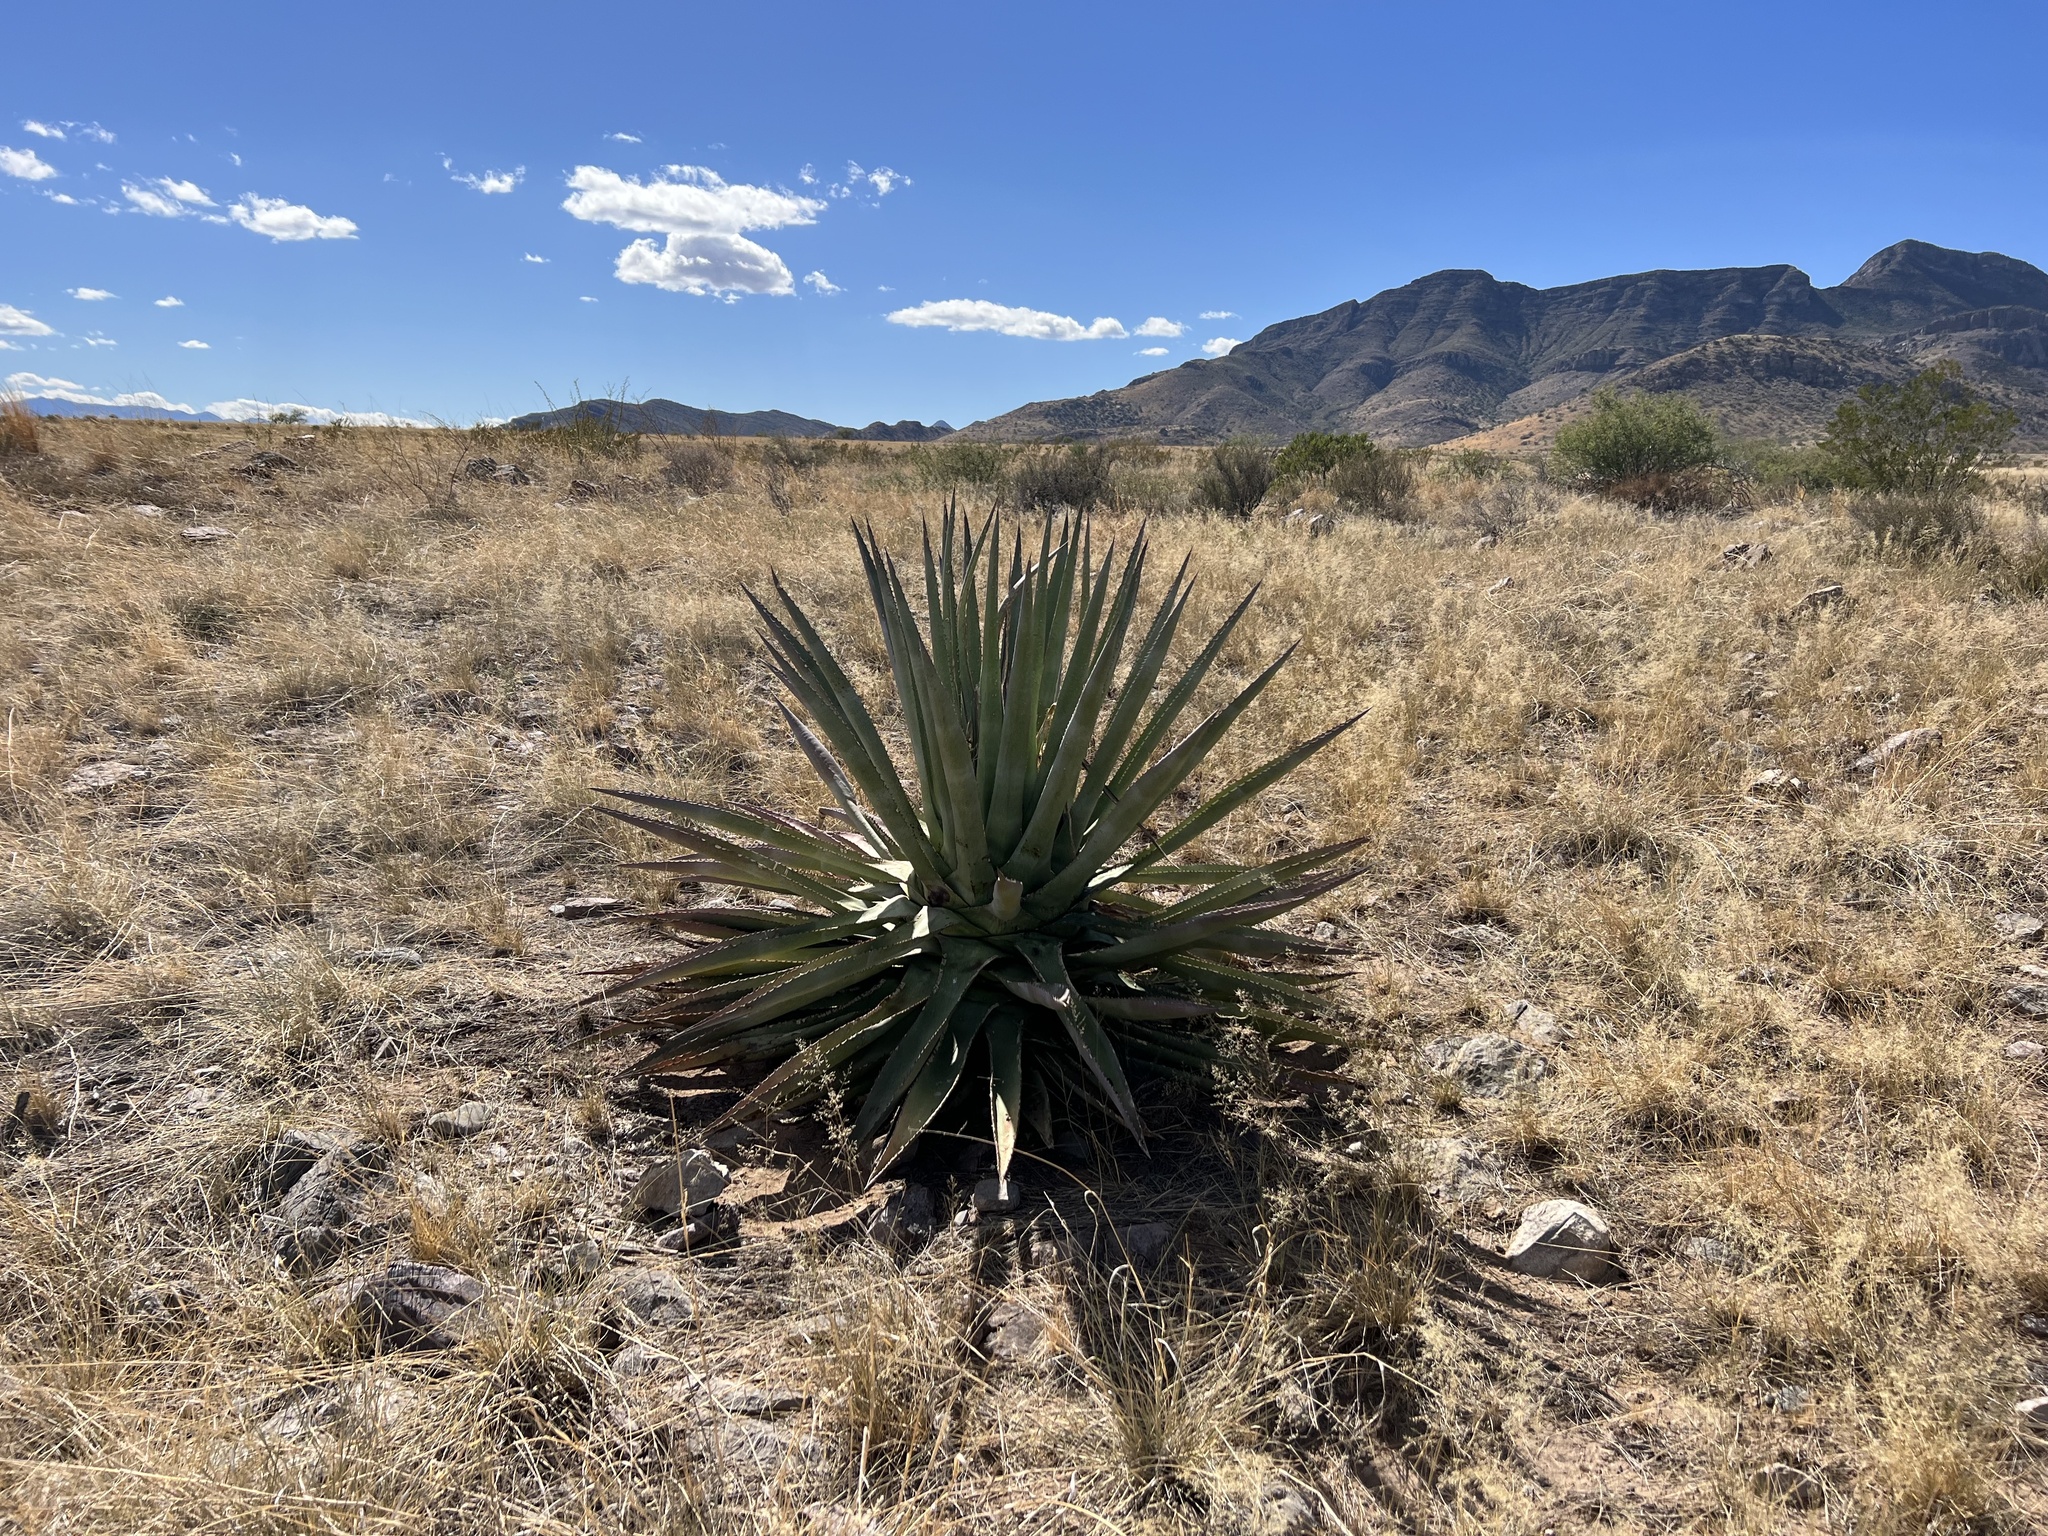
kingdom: Plantae
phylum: Tracheophyta
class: Liliopsida
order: Asparagales
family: Asparagaceae
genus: Agave
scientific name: Agave palmeri
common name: Palmer agave
